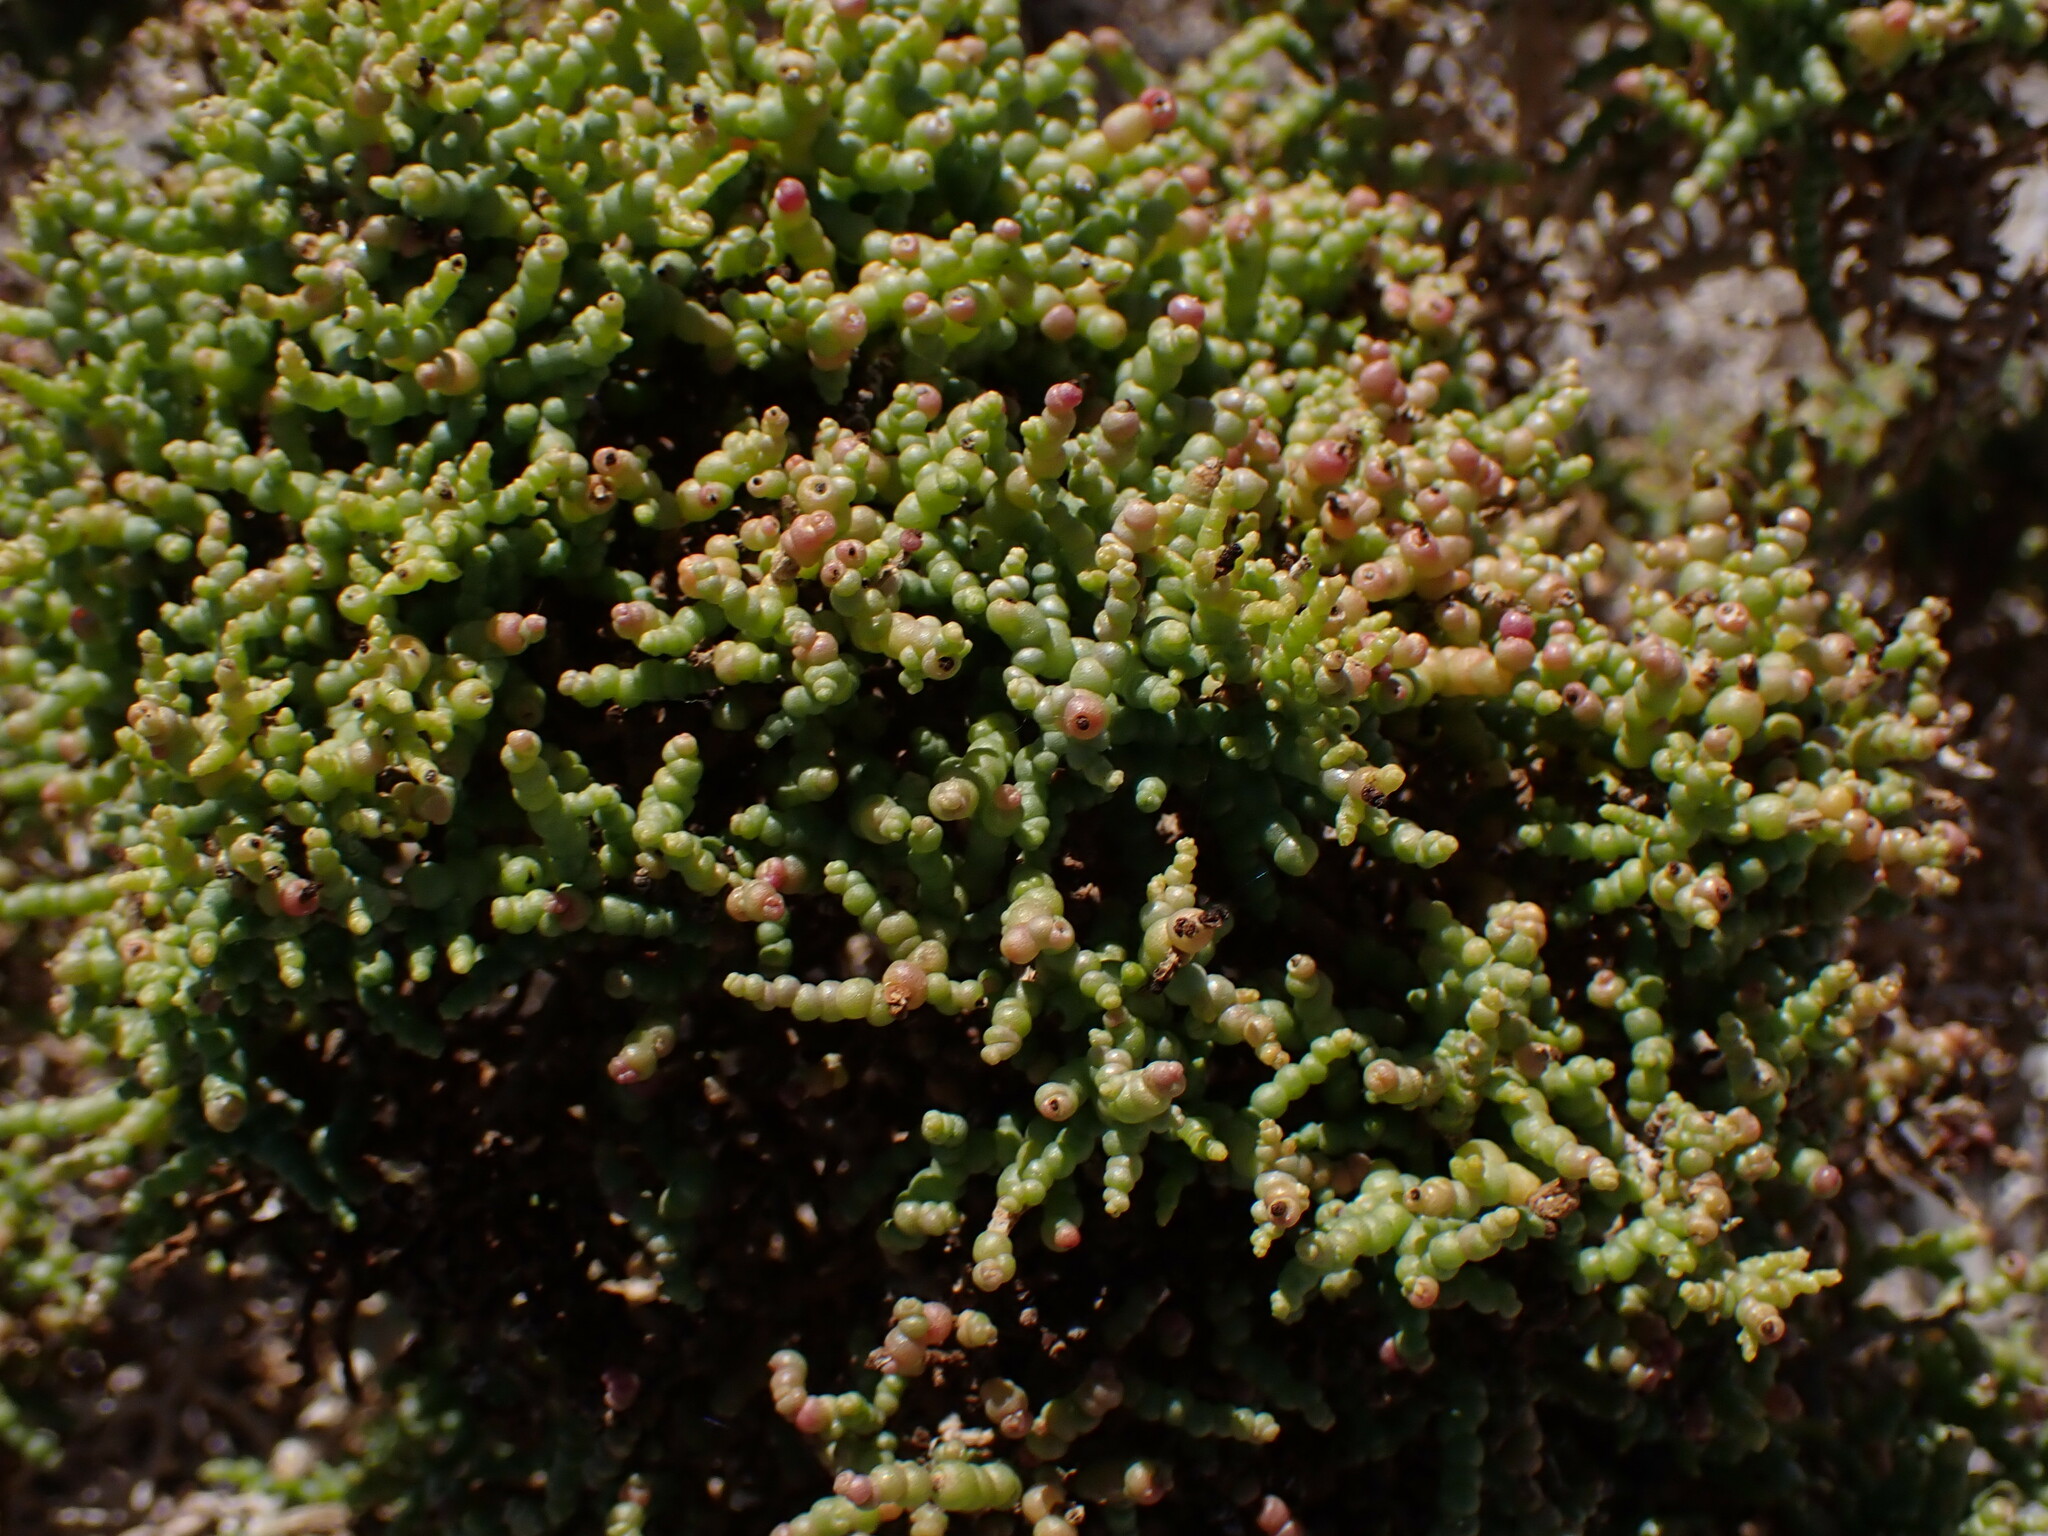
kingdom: Plantae
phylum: Tracheophyta
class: Magnoliopsida
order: Caryophyllales
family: Amaranthaceae
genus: Allenrolfea
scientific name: Allenrolfea occidentalis
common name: Iodine-bush
